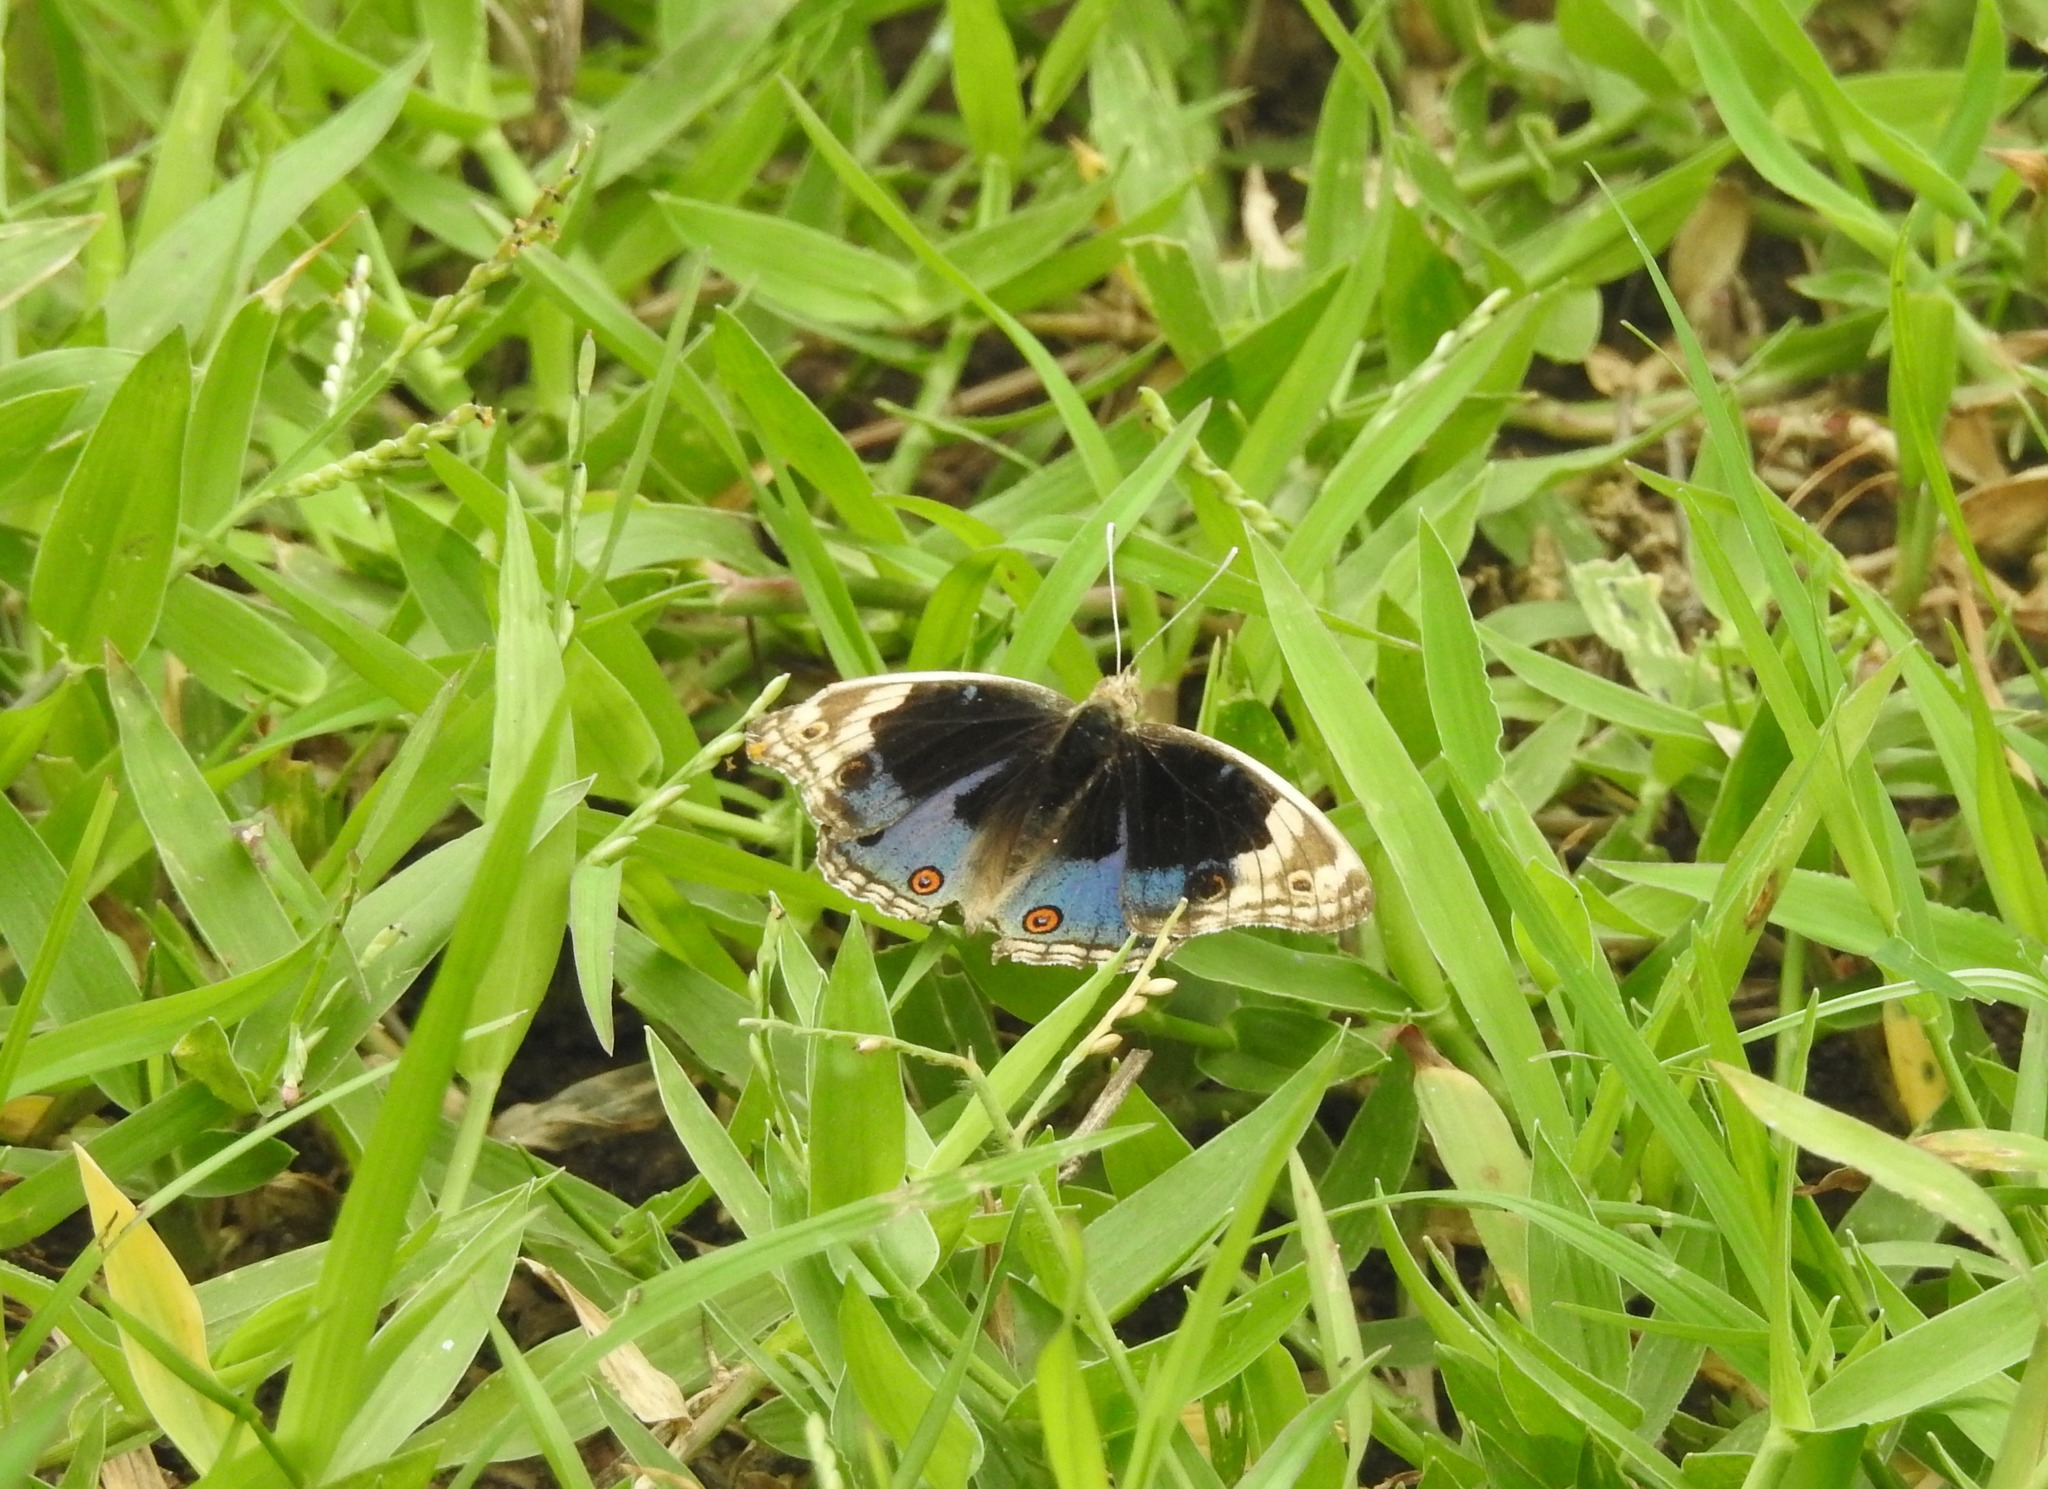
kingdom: Animalia
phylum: Arthropoda
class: Insecta
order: Lepidoptera
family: Nymphalidae
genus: Junonia
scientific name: Junonia orithya
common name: Blue pansy
